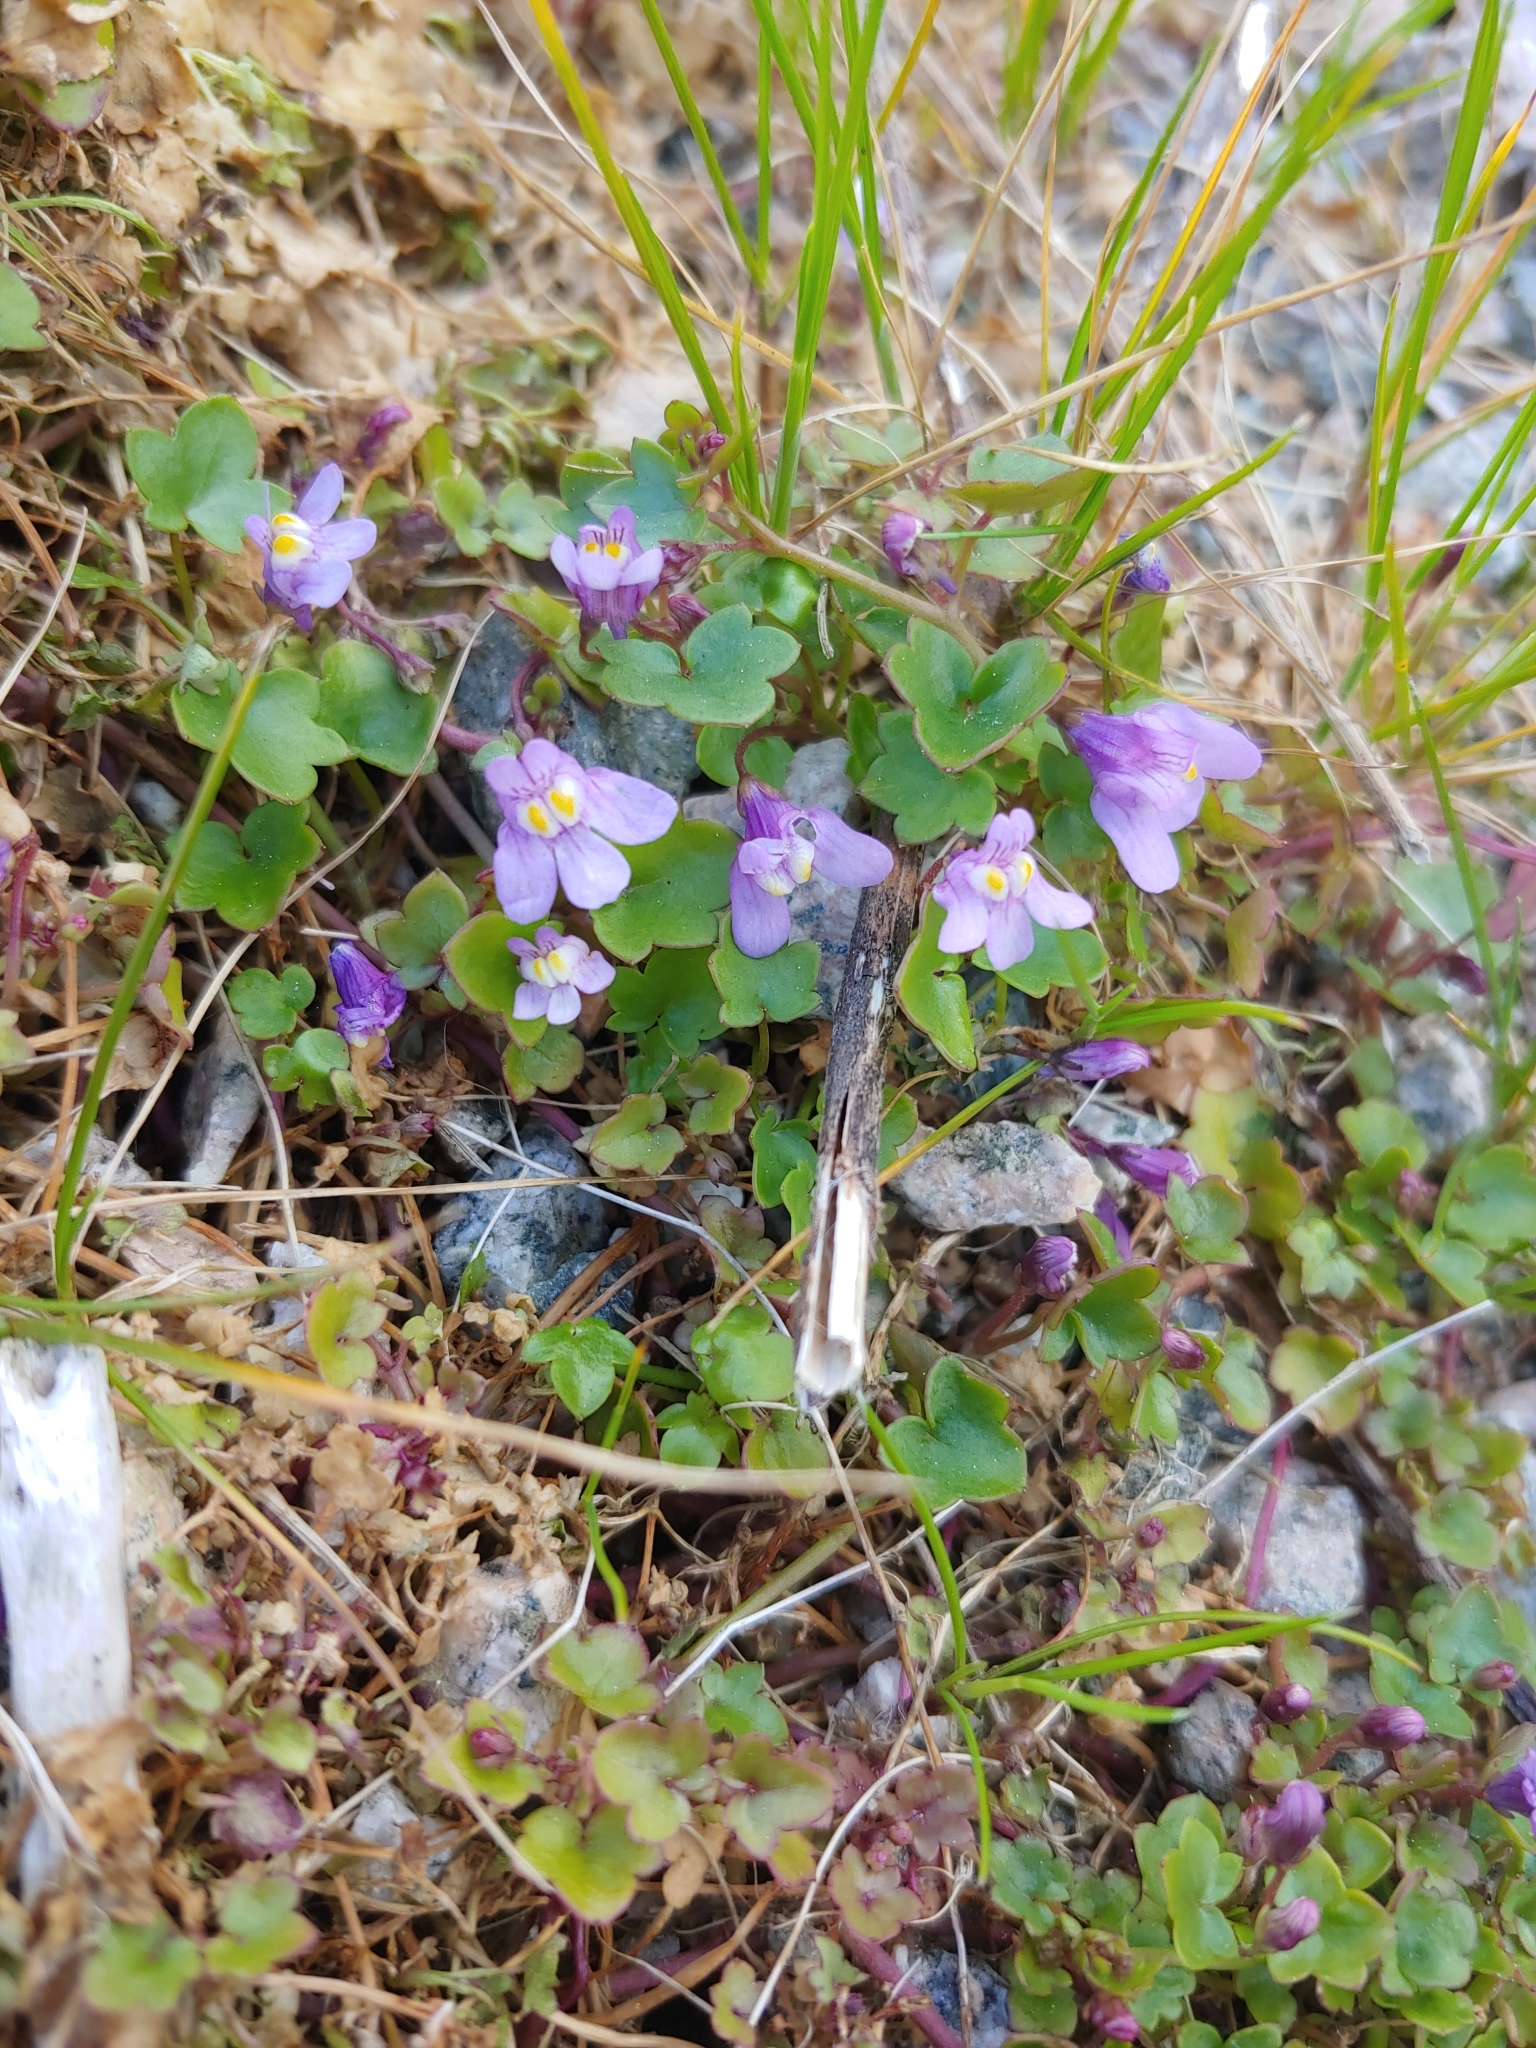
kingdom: Plantae
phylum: Tracheophyta
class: Magnoliopsida
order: Lamiales
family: Plantaginaceae
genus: Cymbalaria
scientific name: Cymbalaria muralis
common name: Ivy-leaved toadflax
